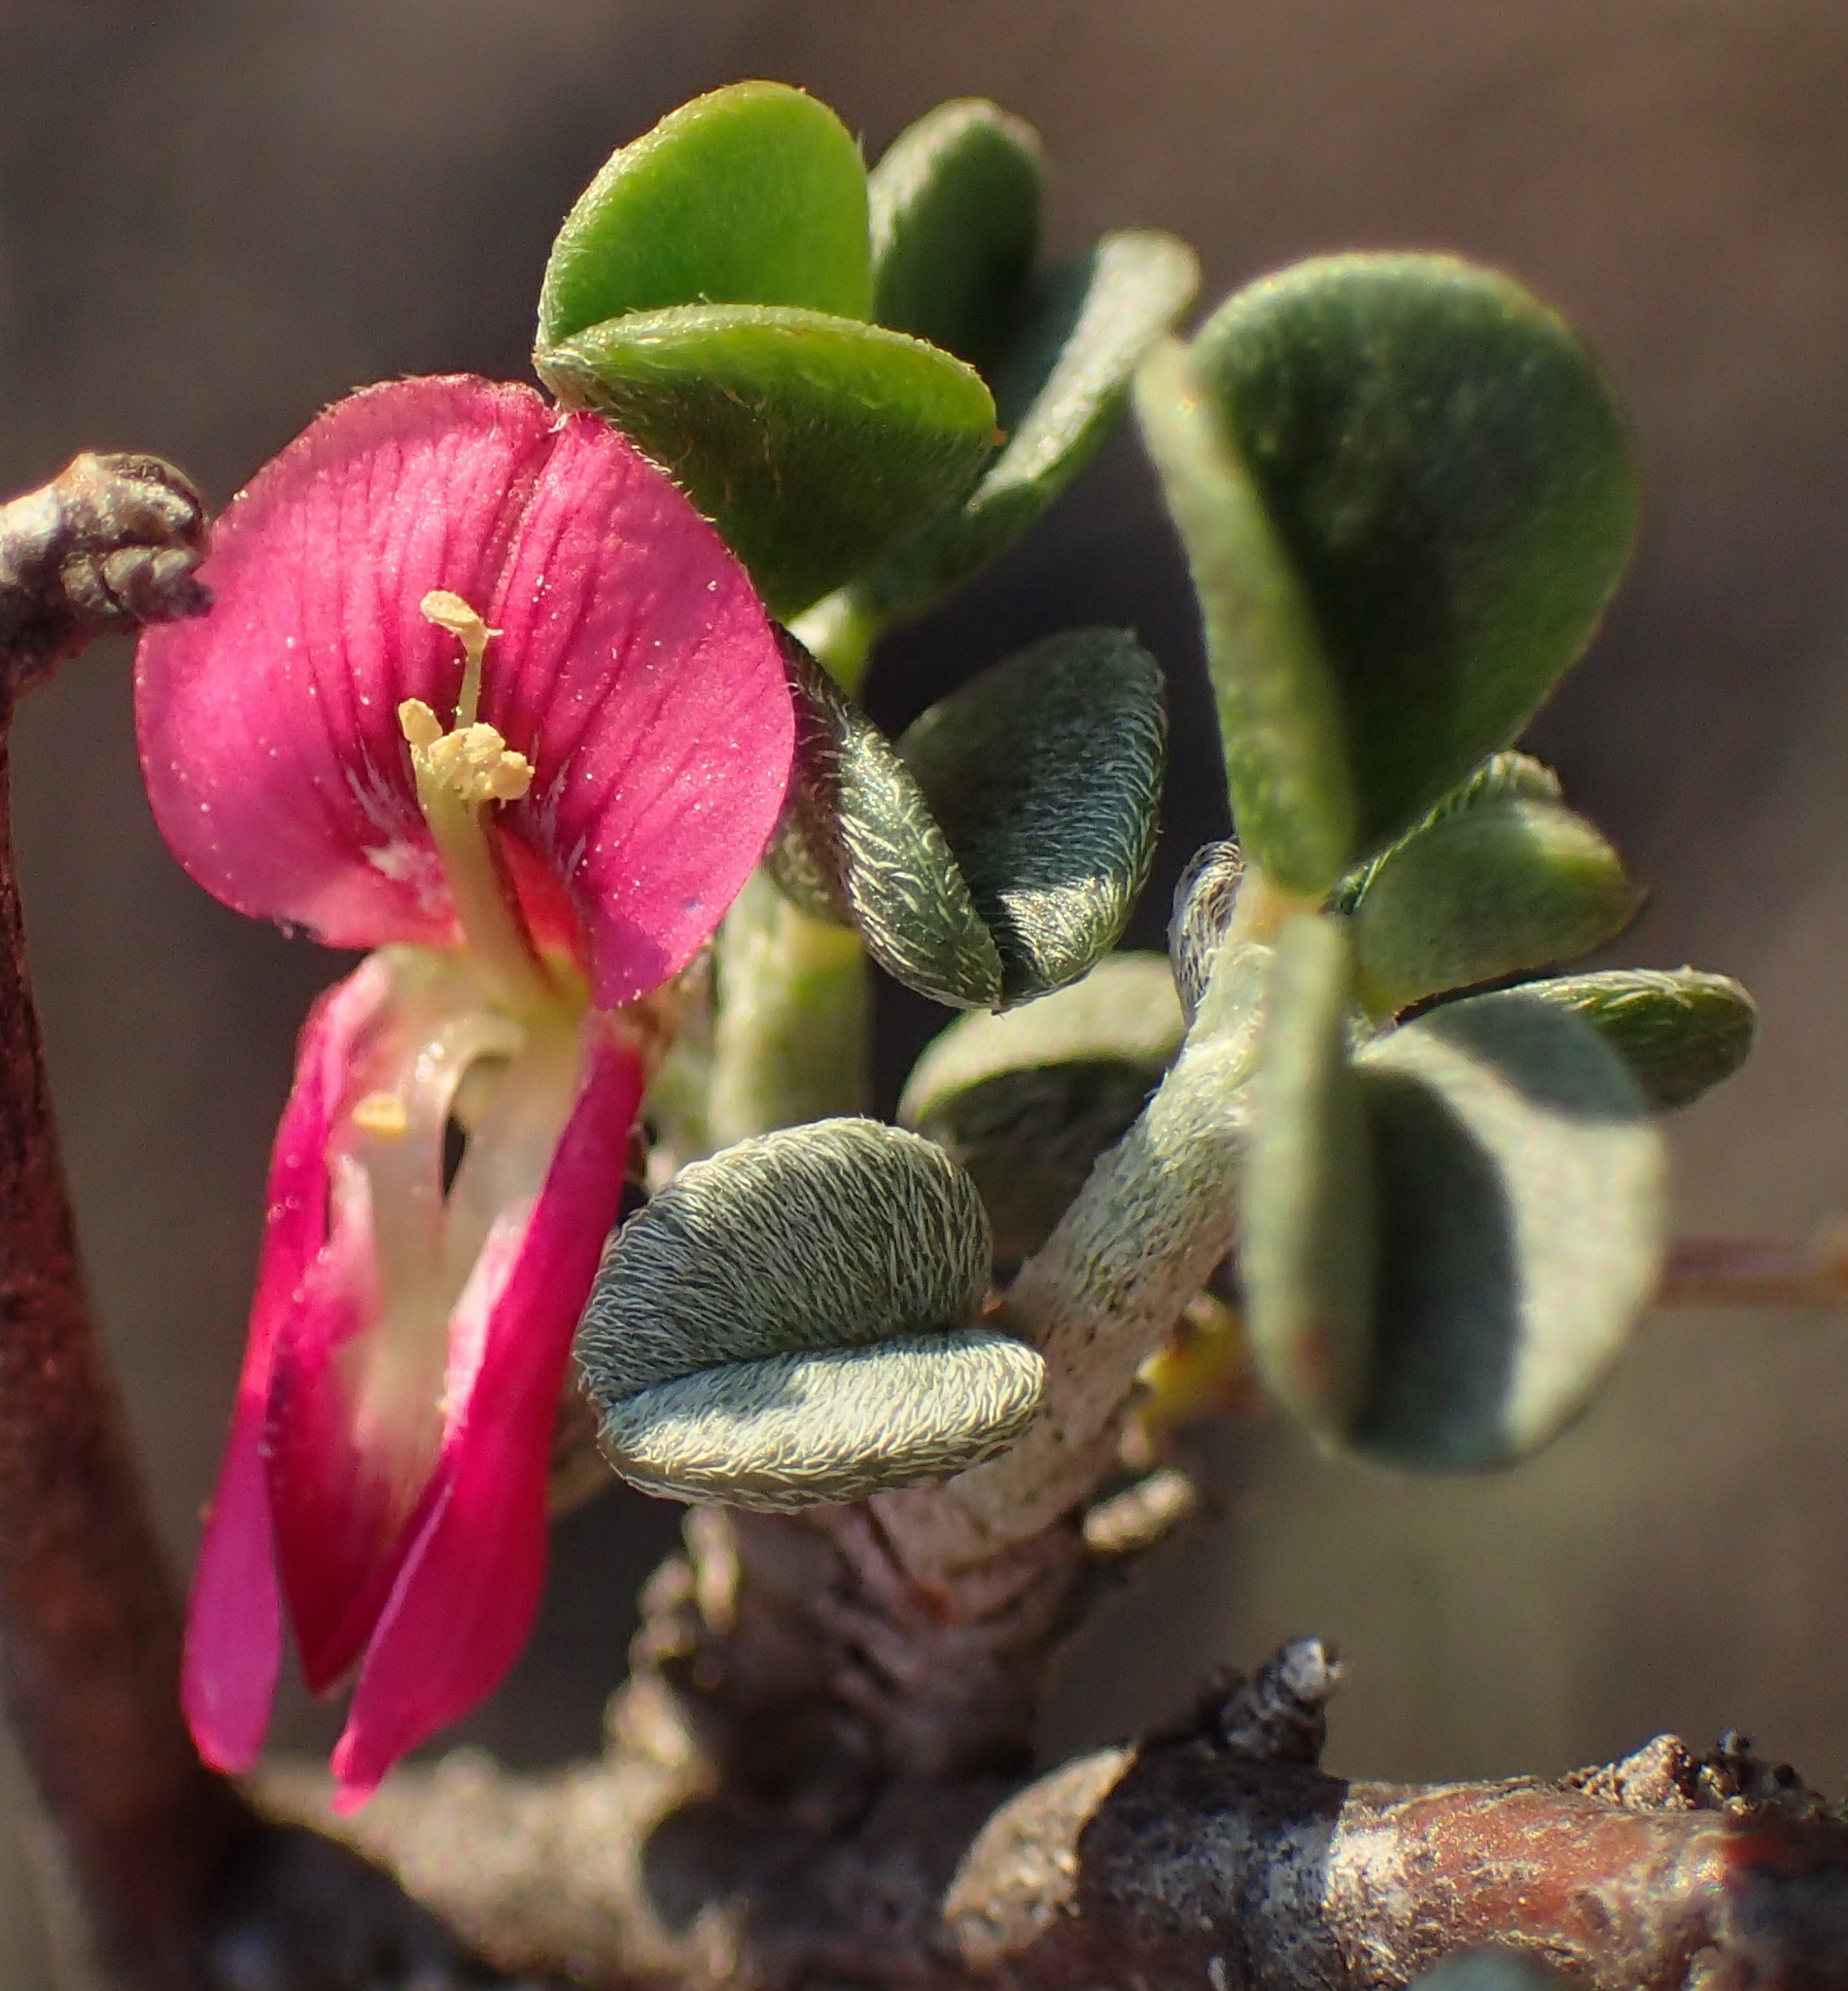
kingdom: Plantae
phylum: Tracheophyta
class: Magnoliopsida
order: Fabales
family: Fabaceae
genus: Indigofera
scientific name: Indigofera obcordata
